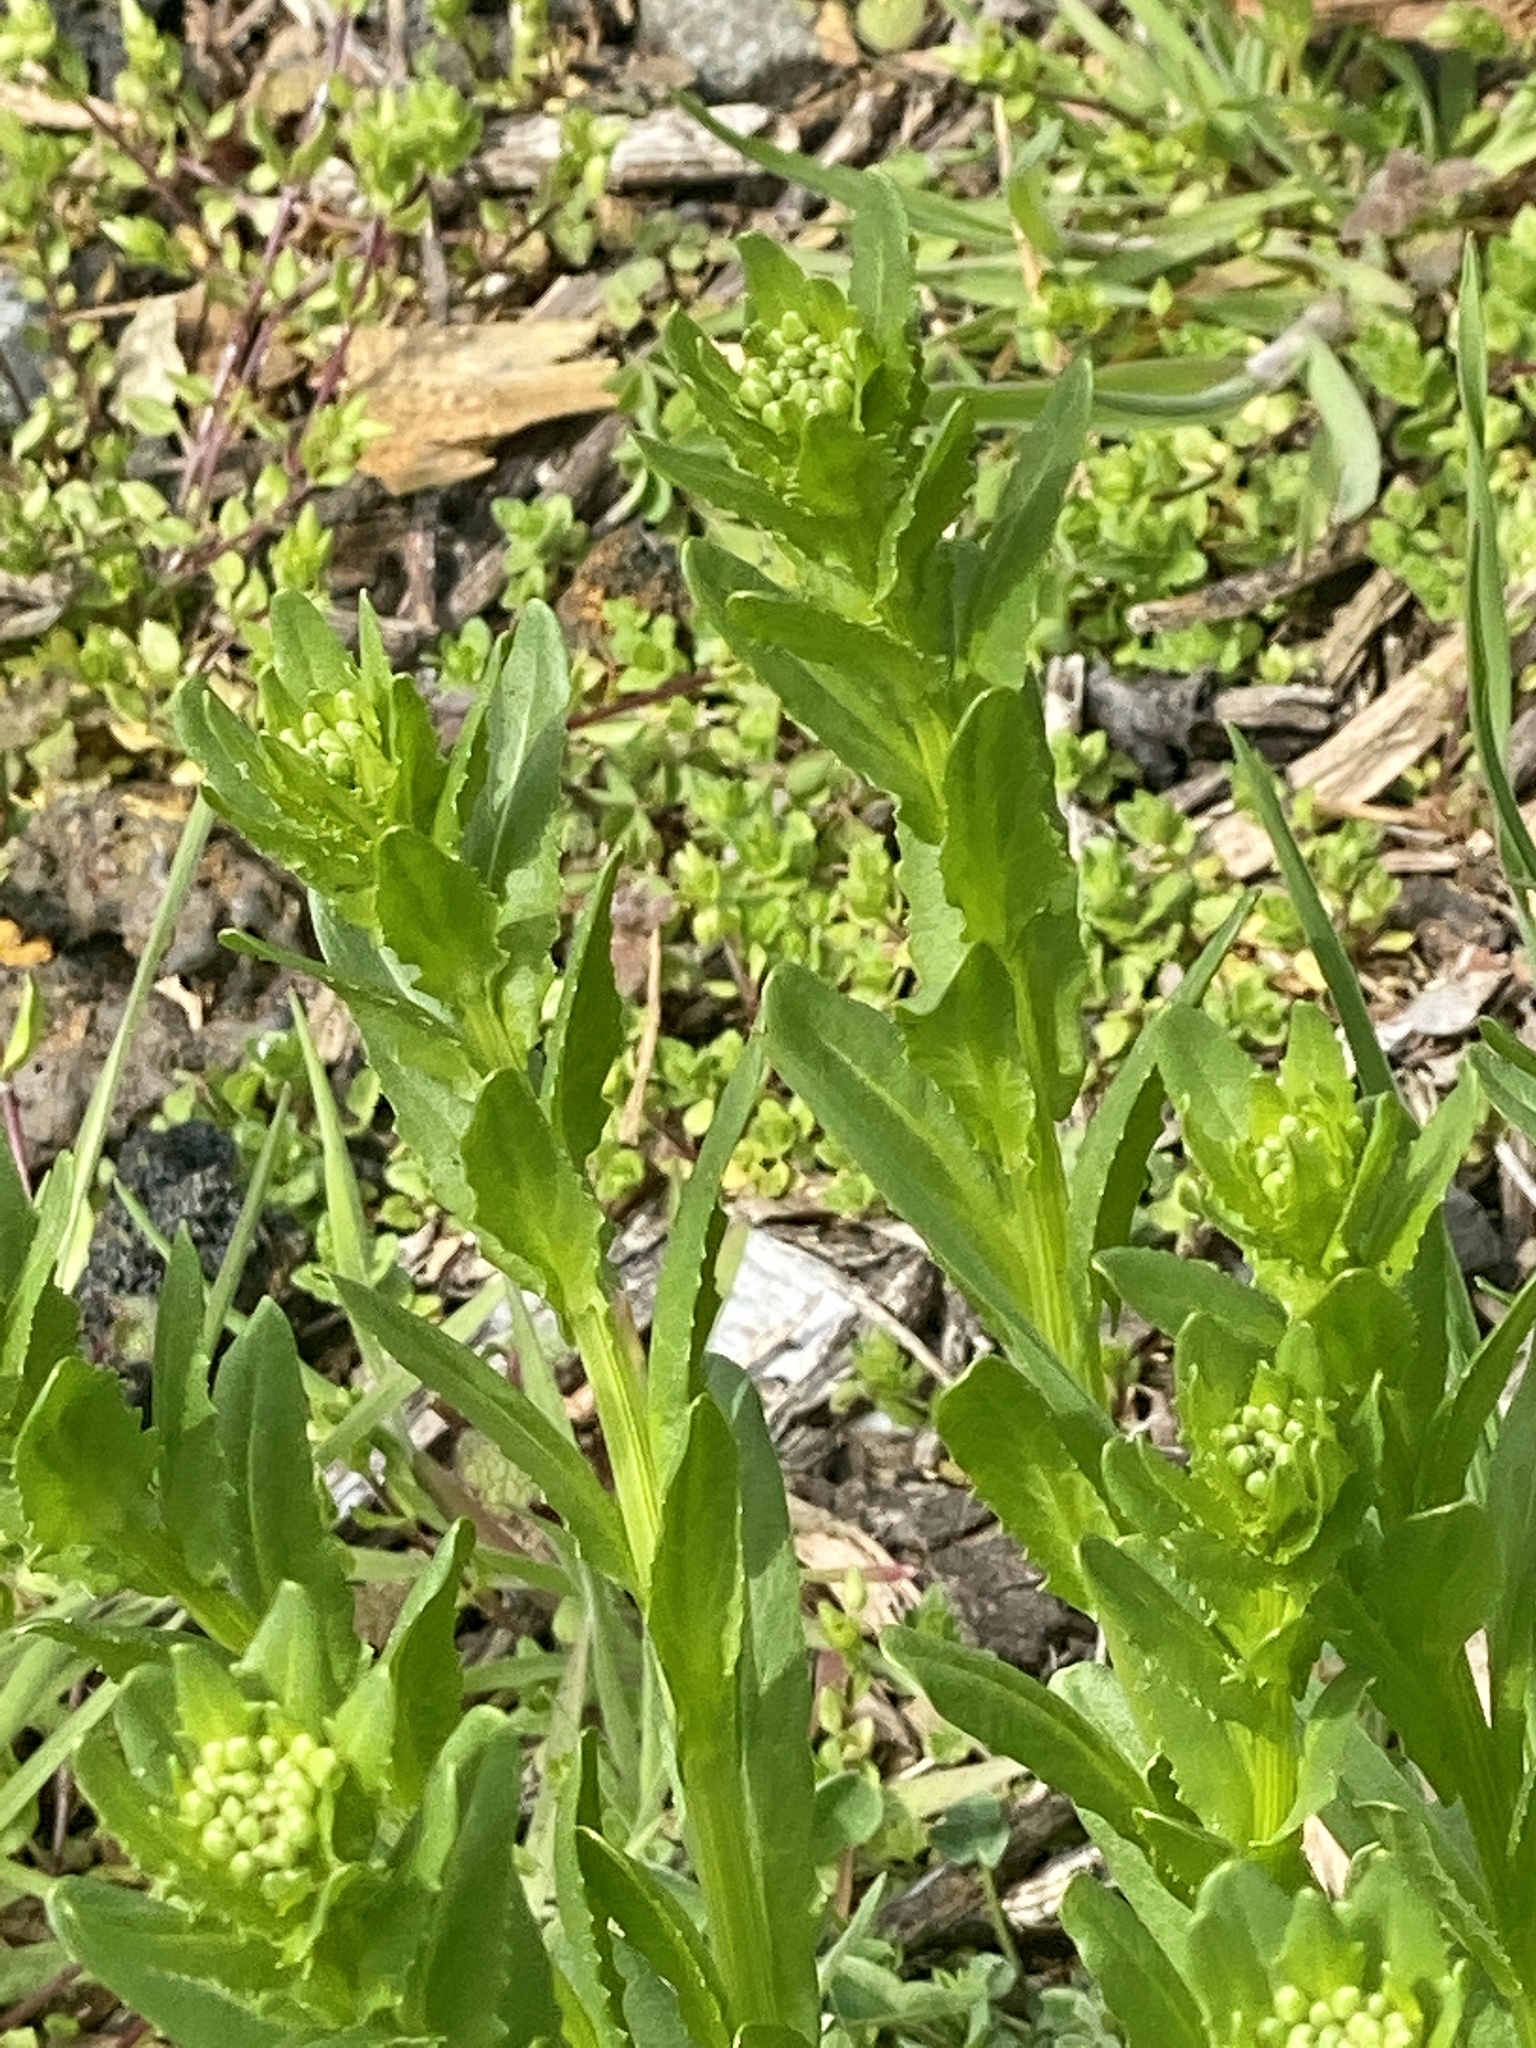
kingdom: Plantae
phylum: Tracheophyta
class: Magnoliopsida
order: Brassicales
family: Brassicaceae
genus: Thlaspi
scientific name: Thlaspi arvense
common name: Field pennycress
